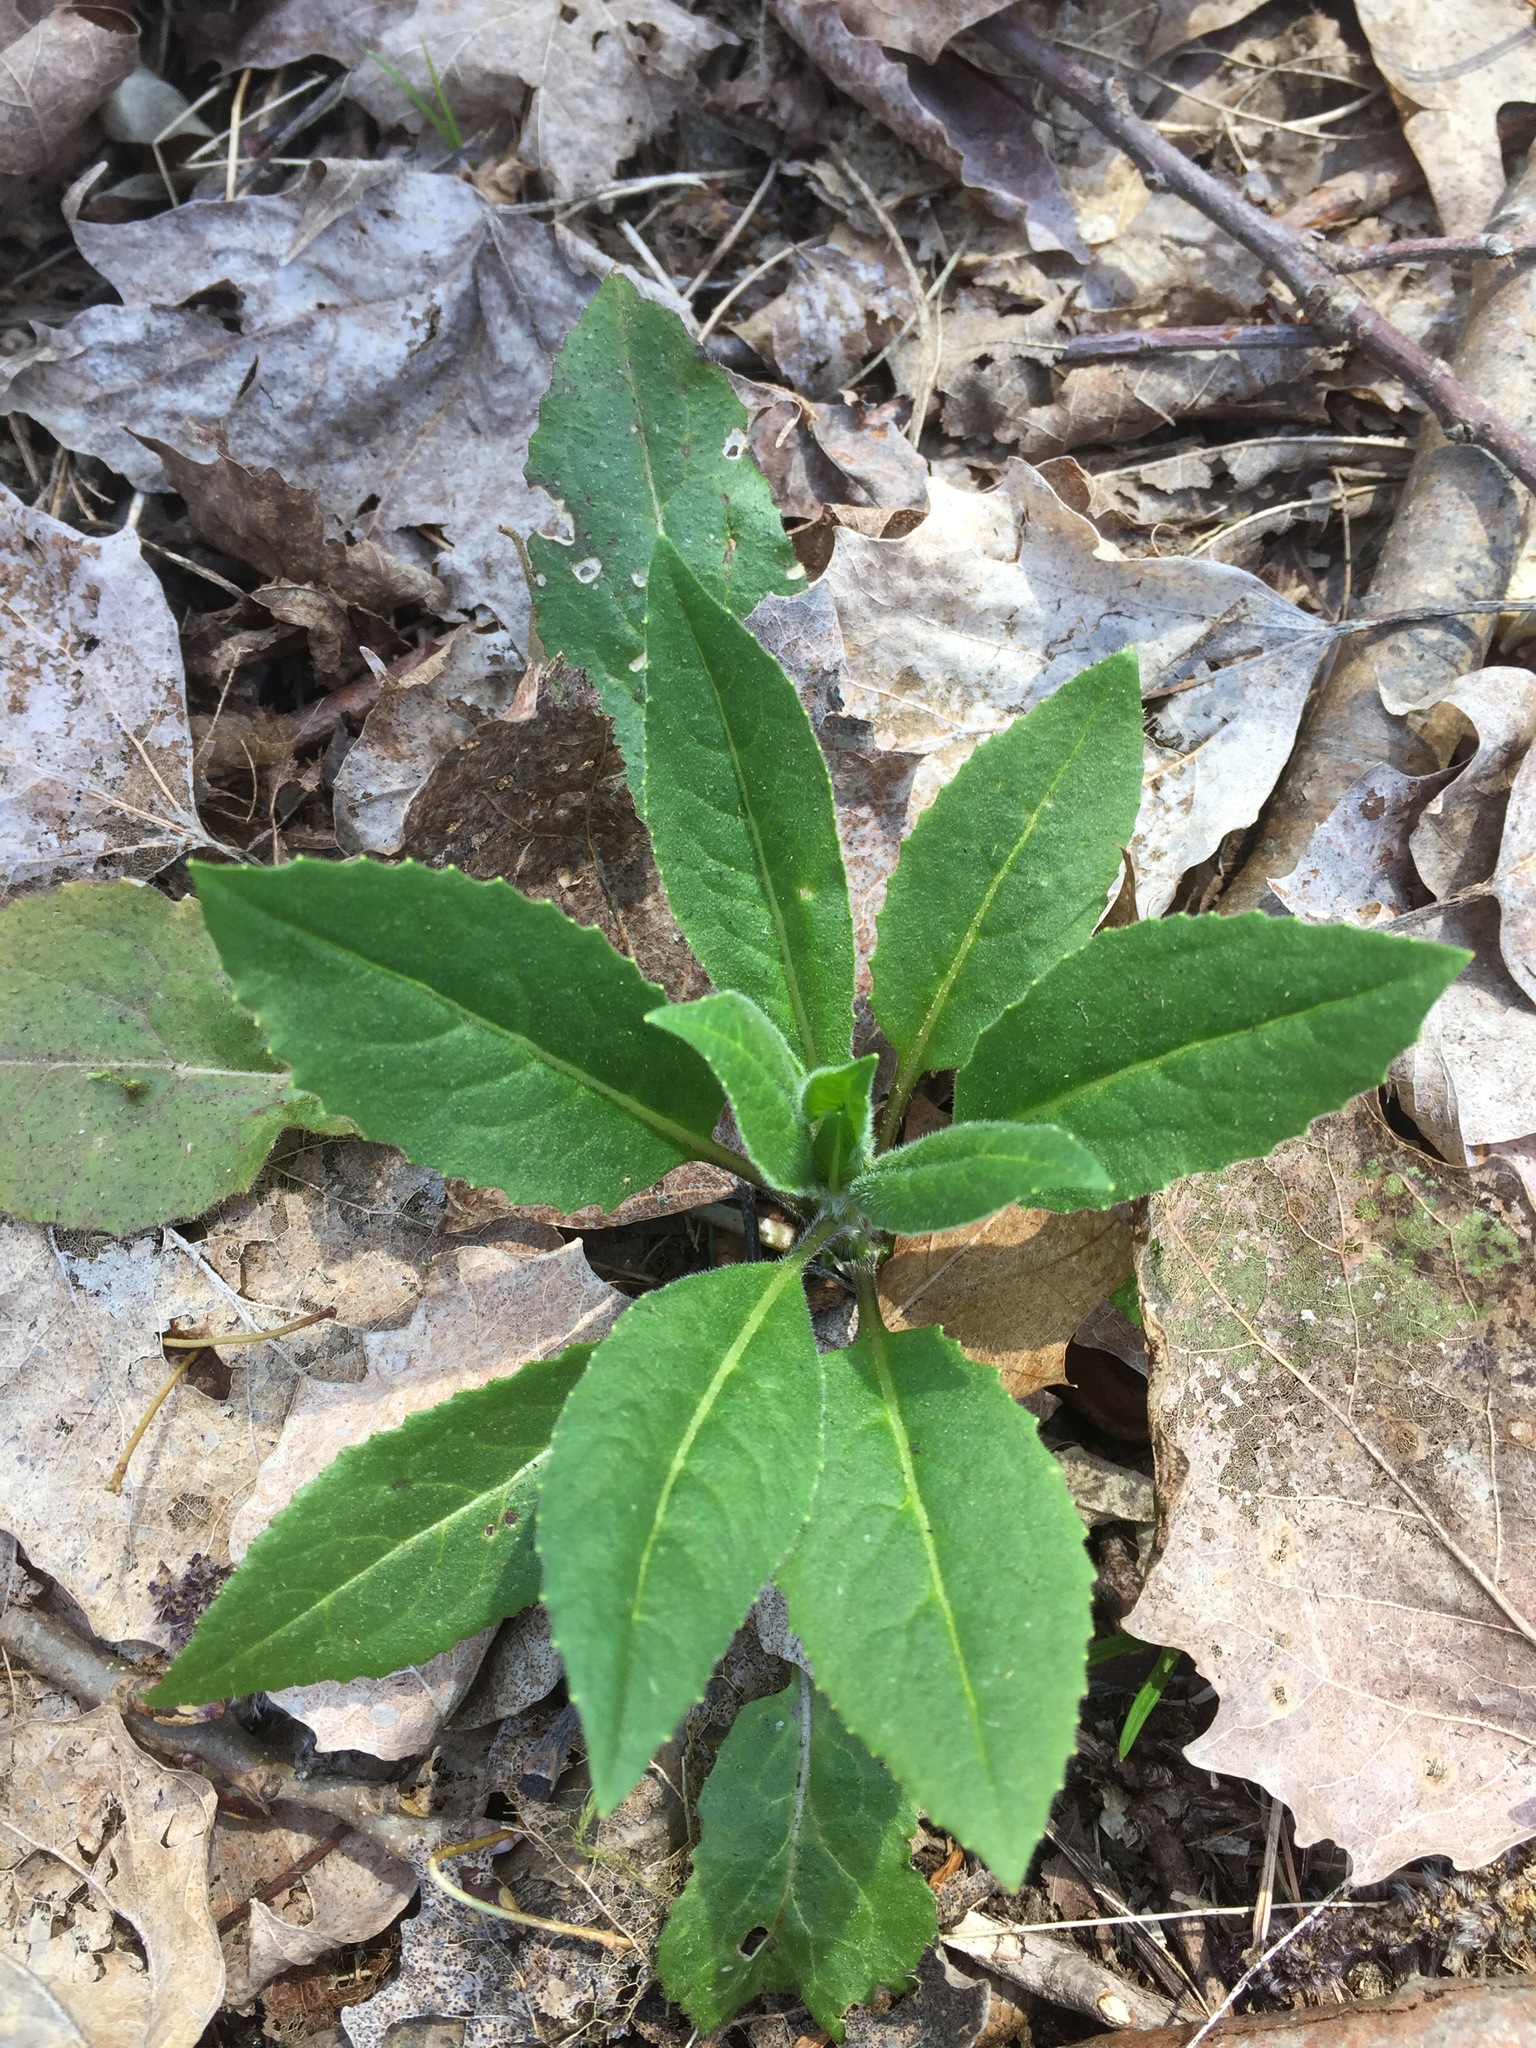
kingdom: Plantae
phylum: Tracheophyta
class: Magnoliopsida
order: Brassicales
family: Brassicaceae
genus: Hesperis
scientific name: Hesperis matronalis
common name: Dame's-violet
